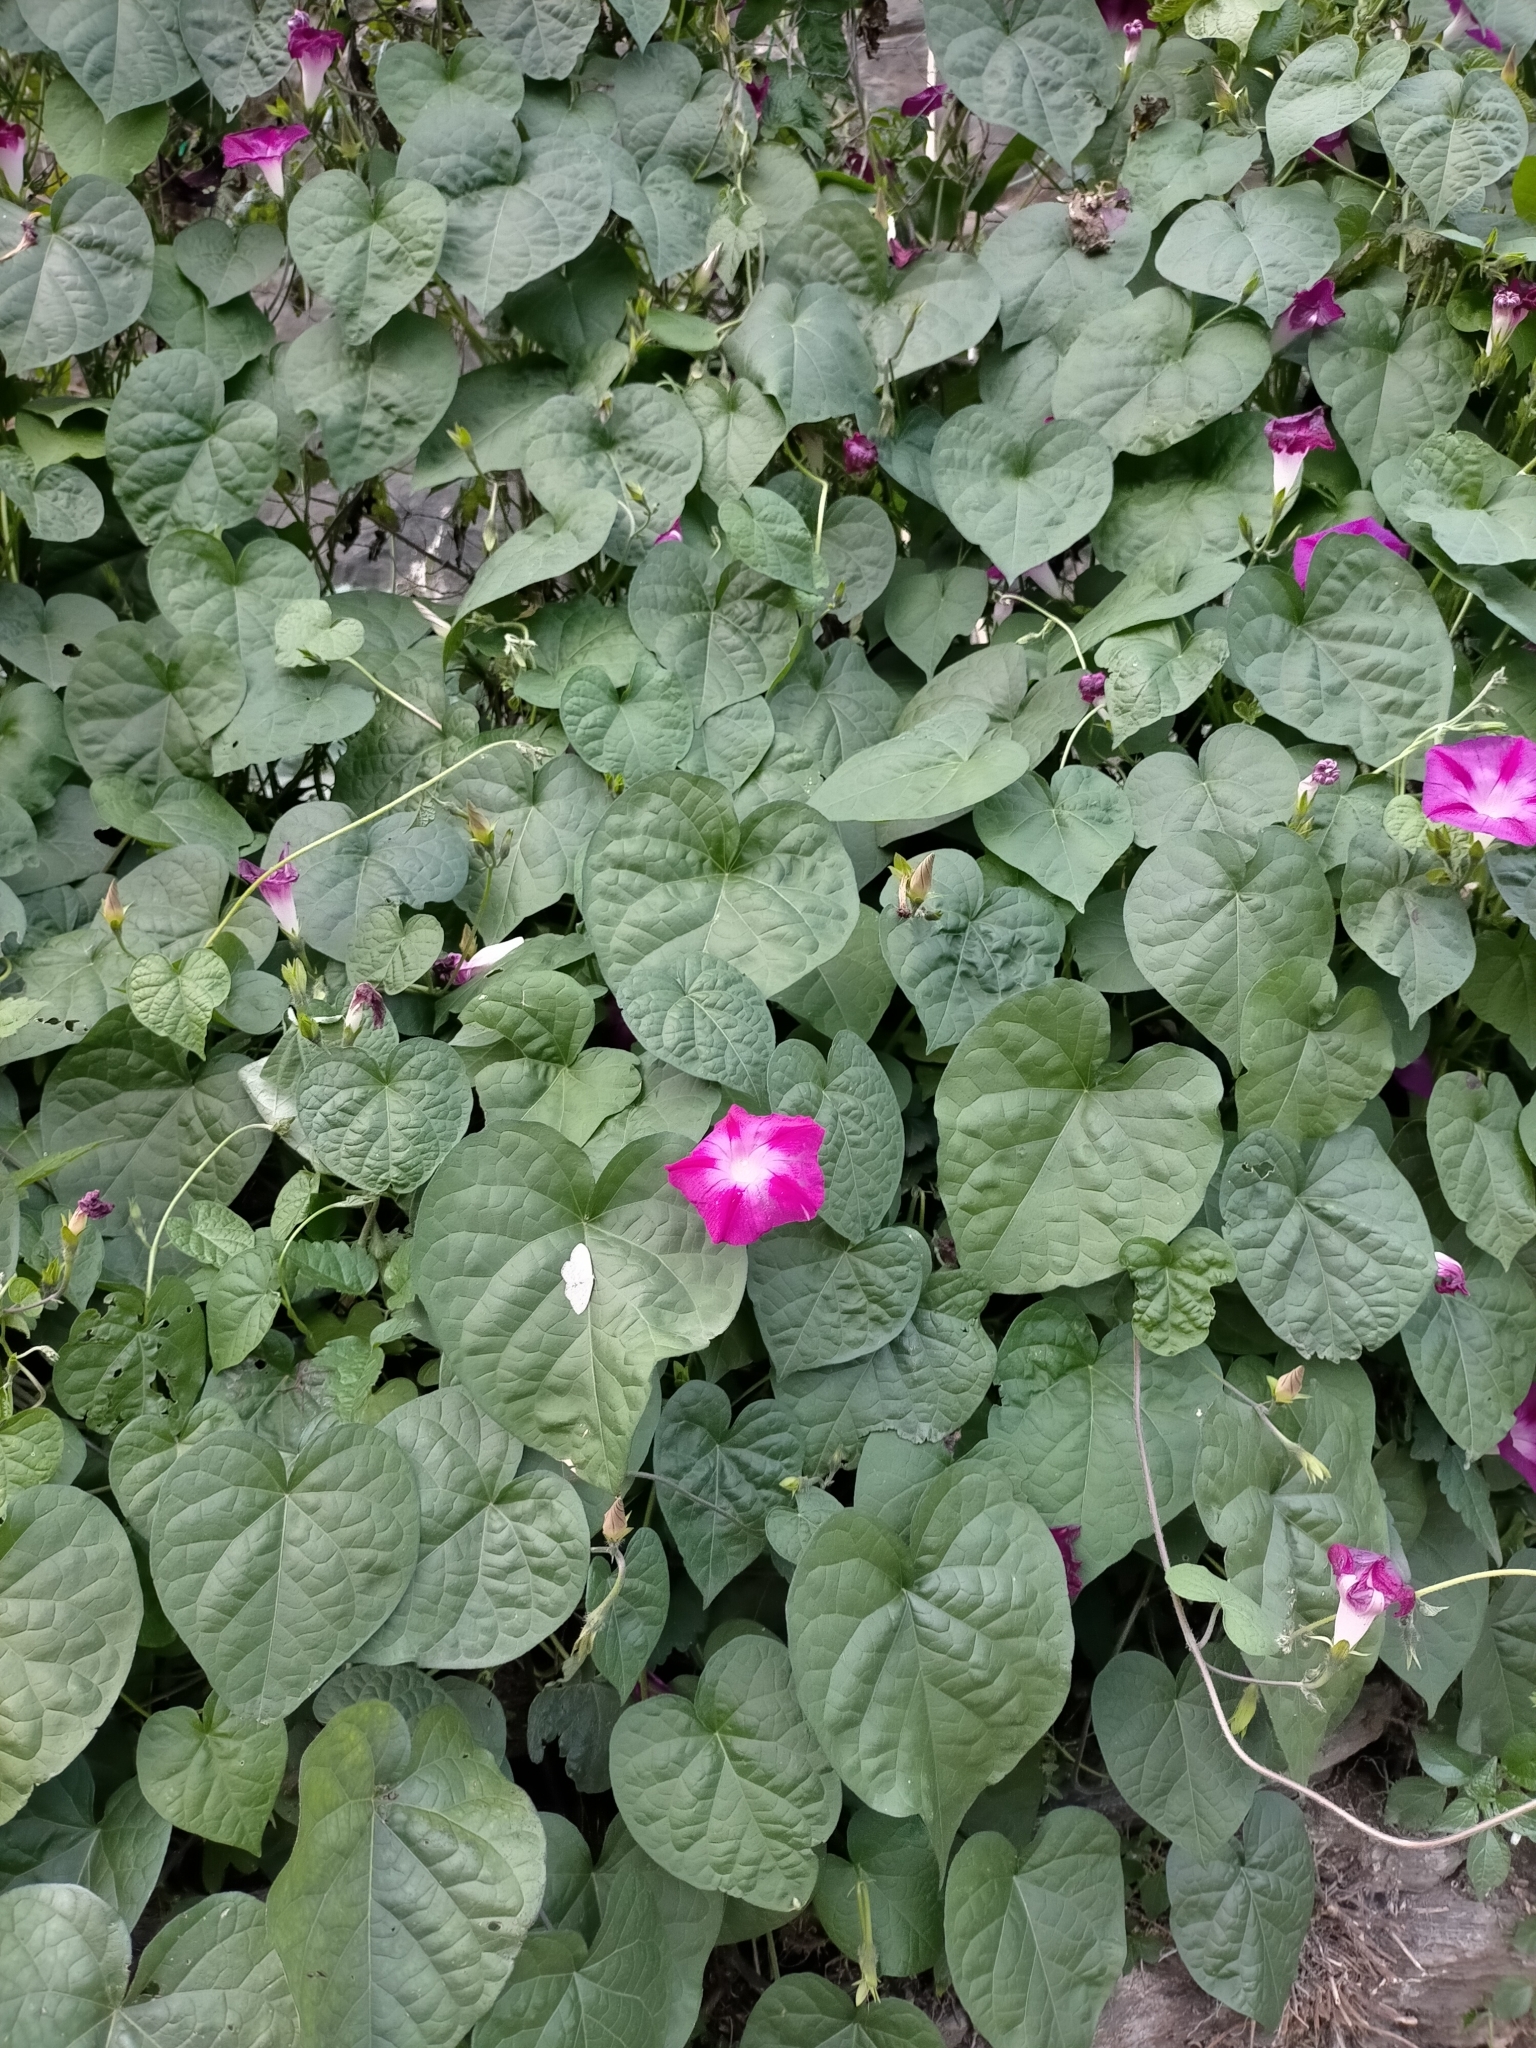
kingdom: Plantae
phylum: Tracheophyta
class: Magnoliopsida
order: Solanales
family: Convolvulaceae
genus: Ipomoea
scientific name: Ipomoea purpurea
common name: Common morning-glory
